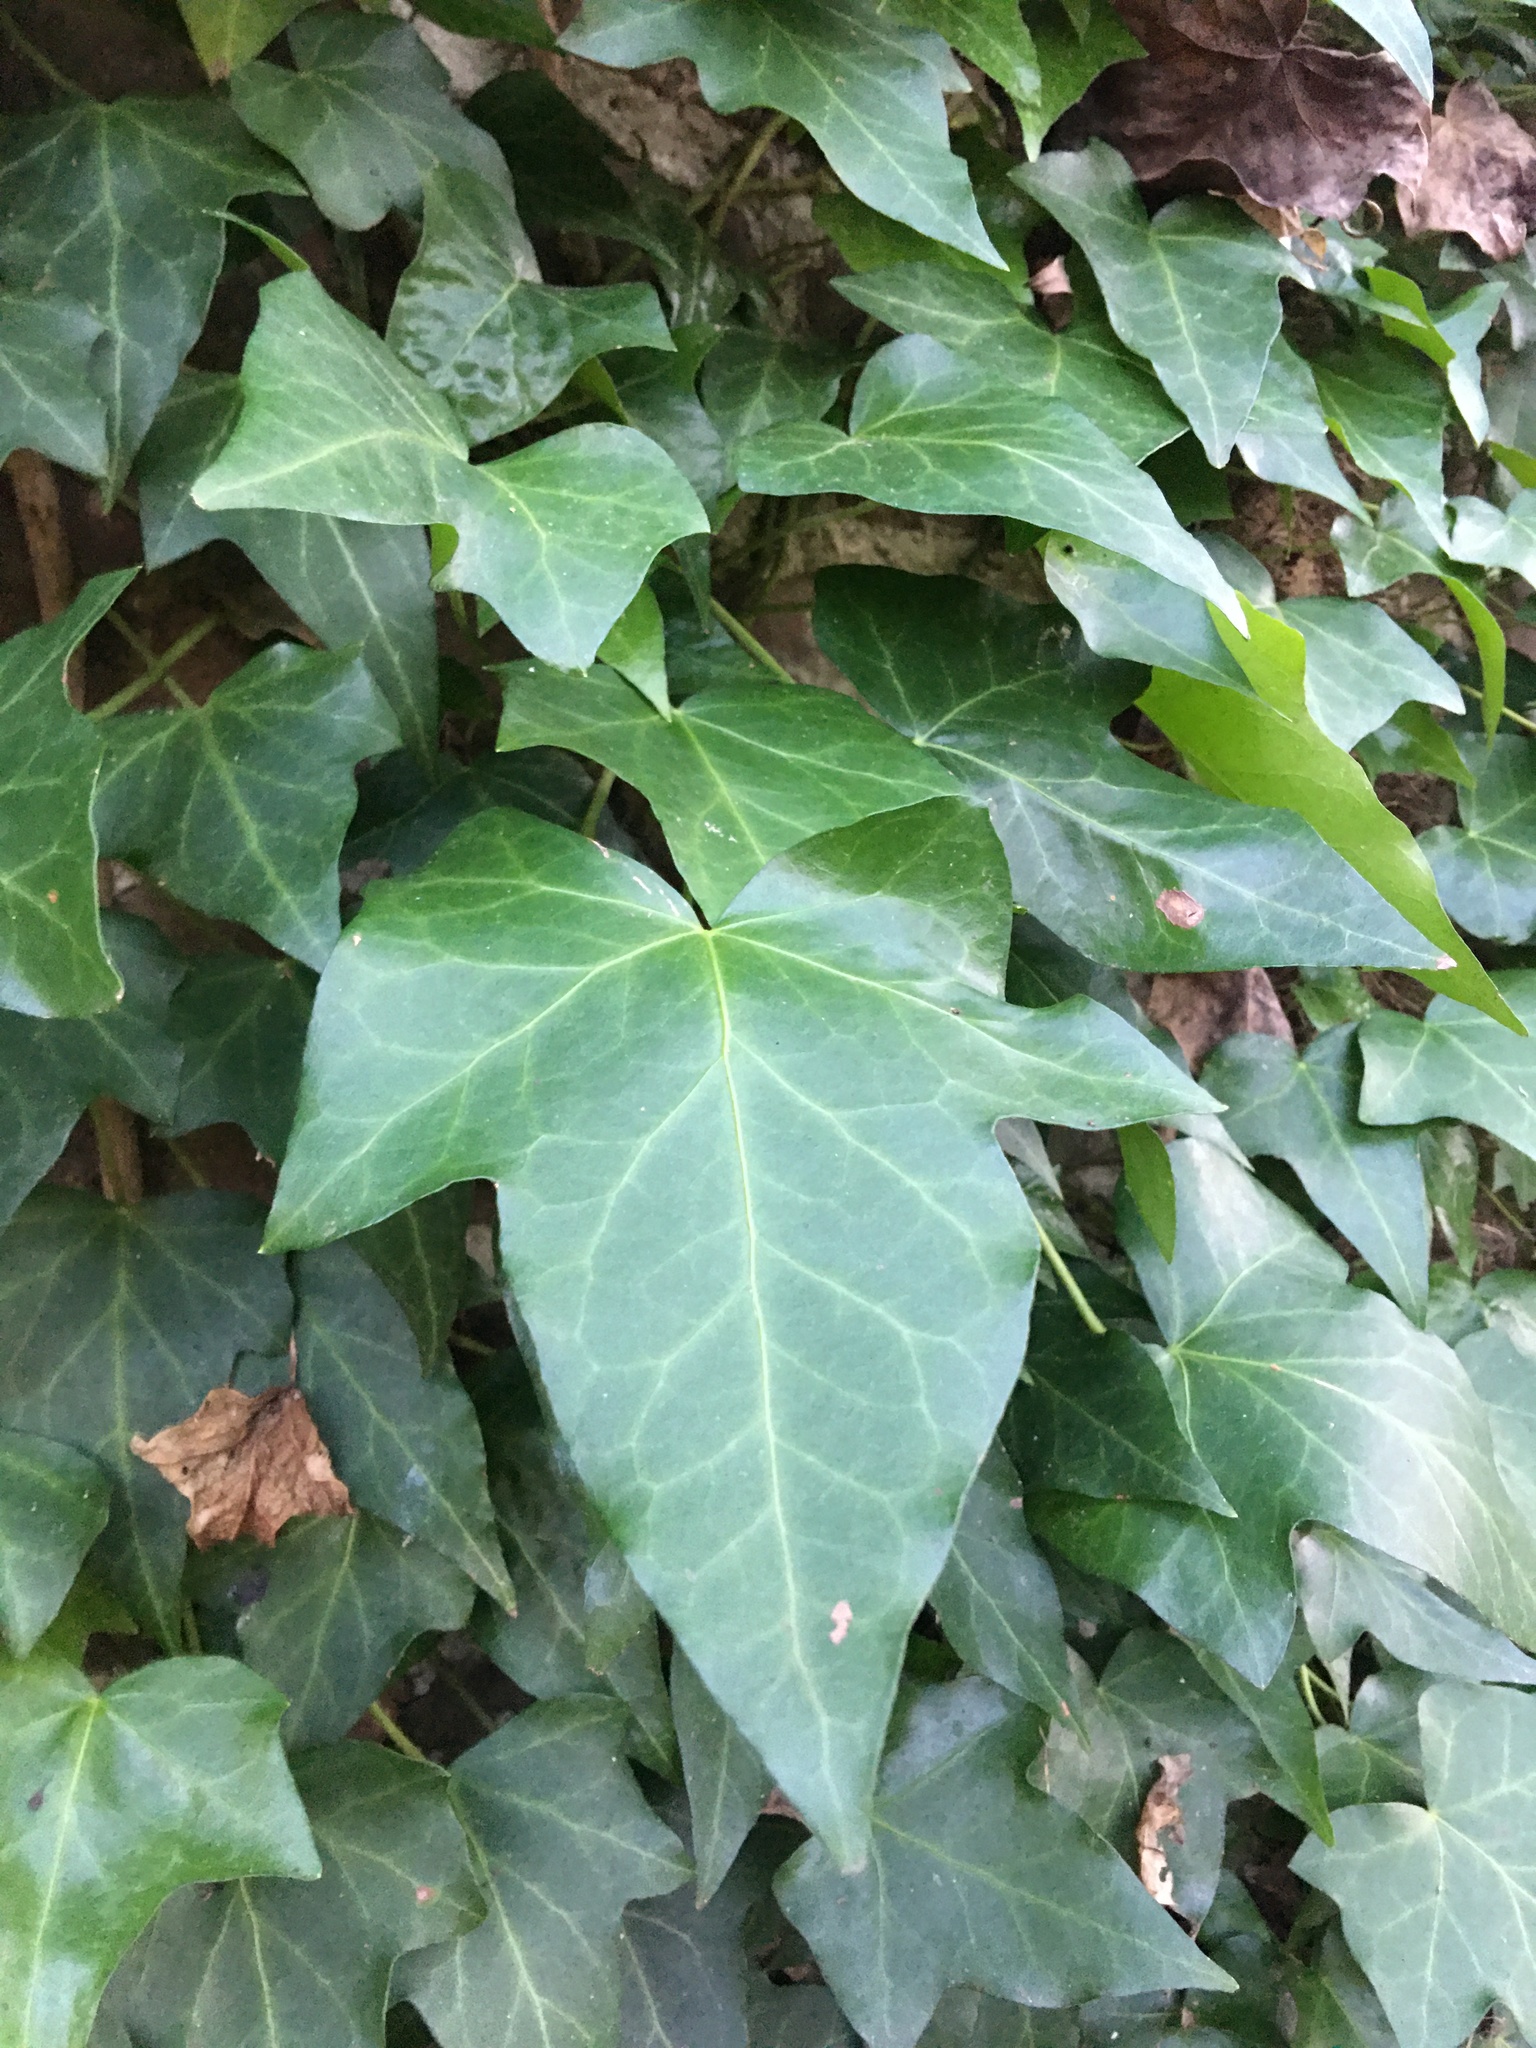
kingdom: Plantae
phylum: Tracheophyta
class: Magnoliopsida
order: Apiales
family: Araliaceae
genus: Hedera
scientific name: Hedera helix
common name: Ivy
